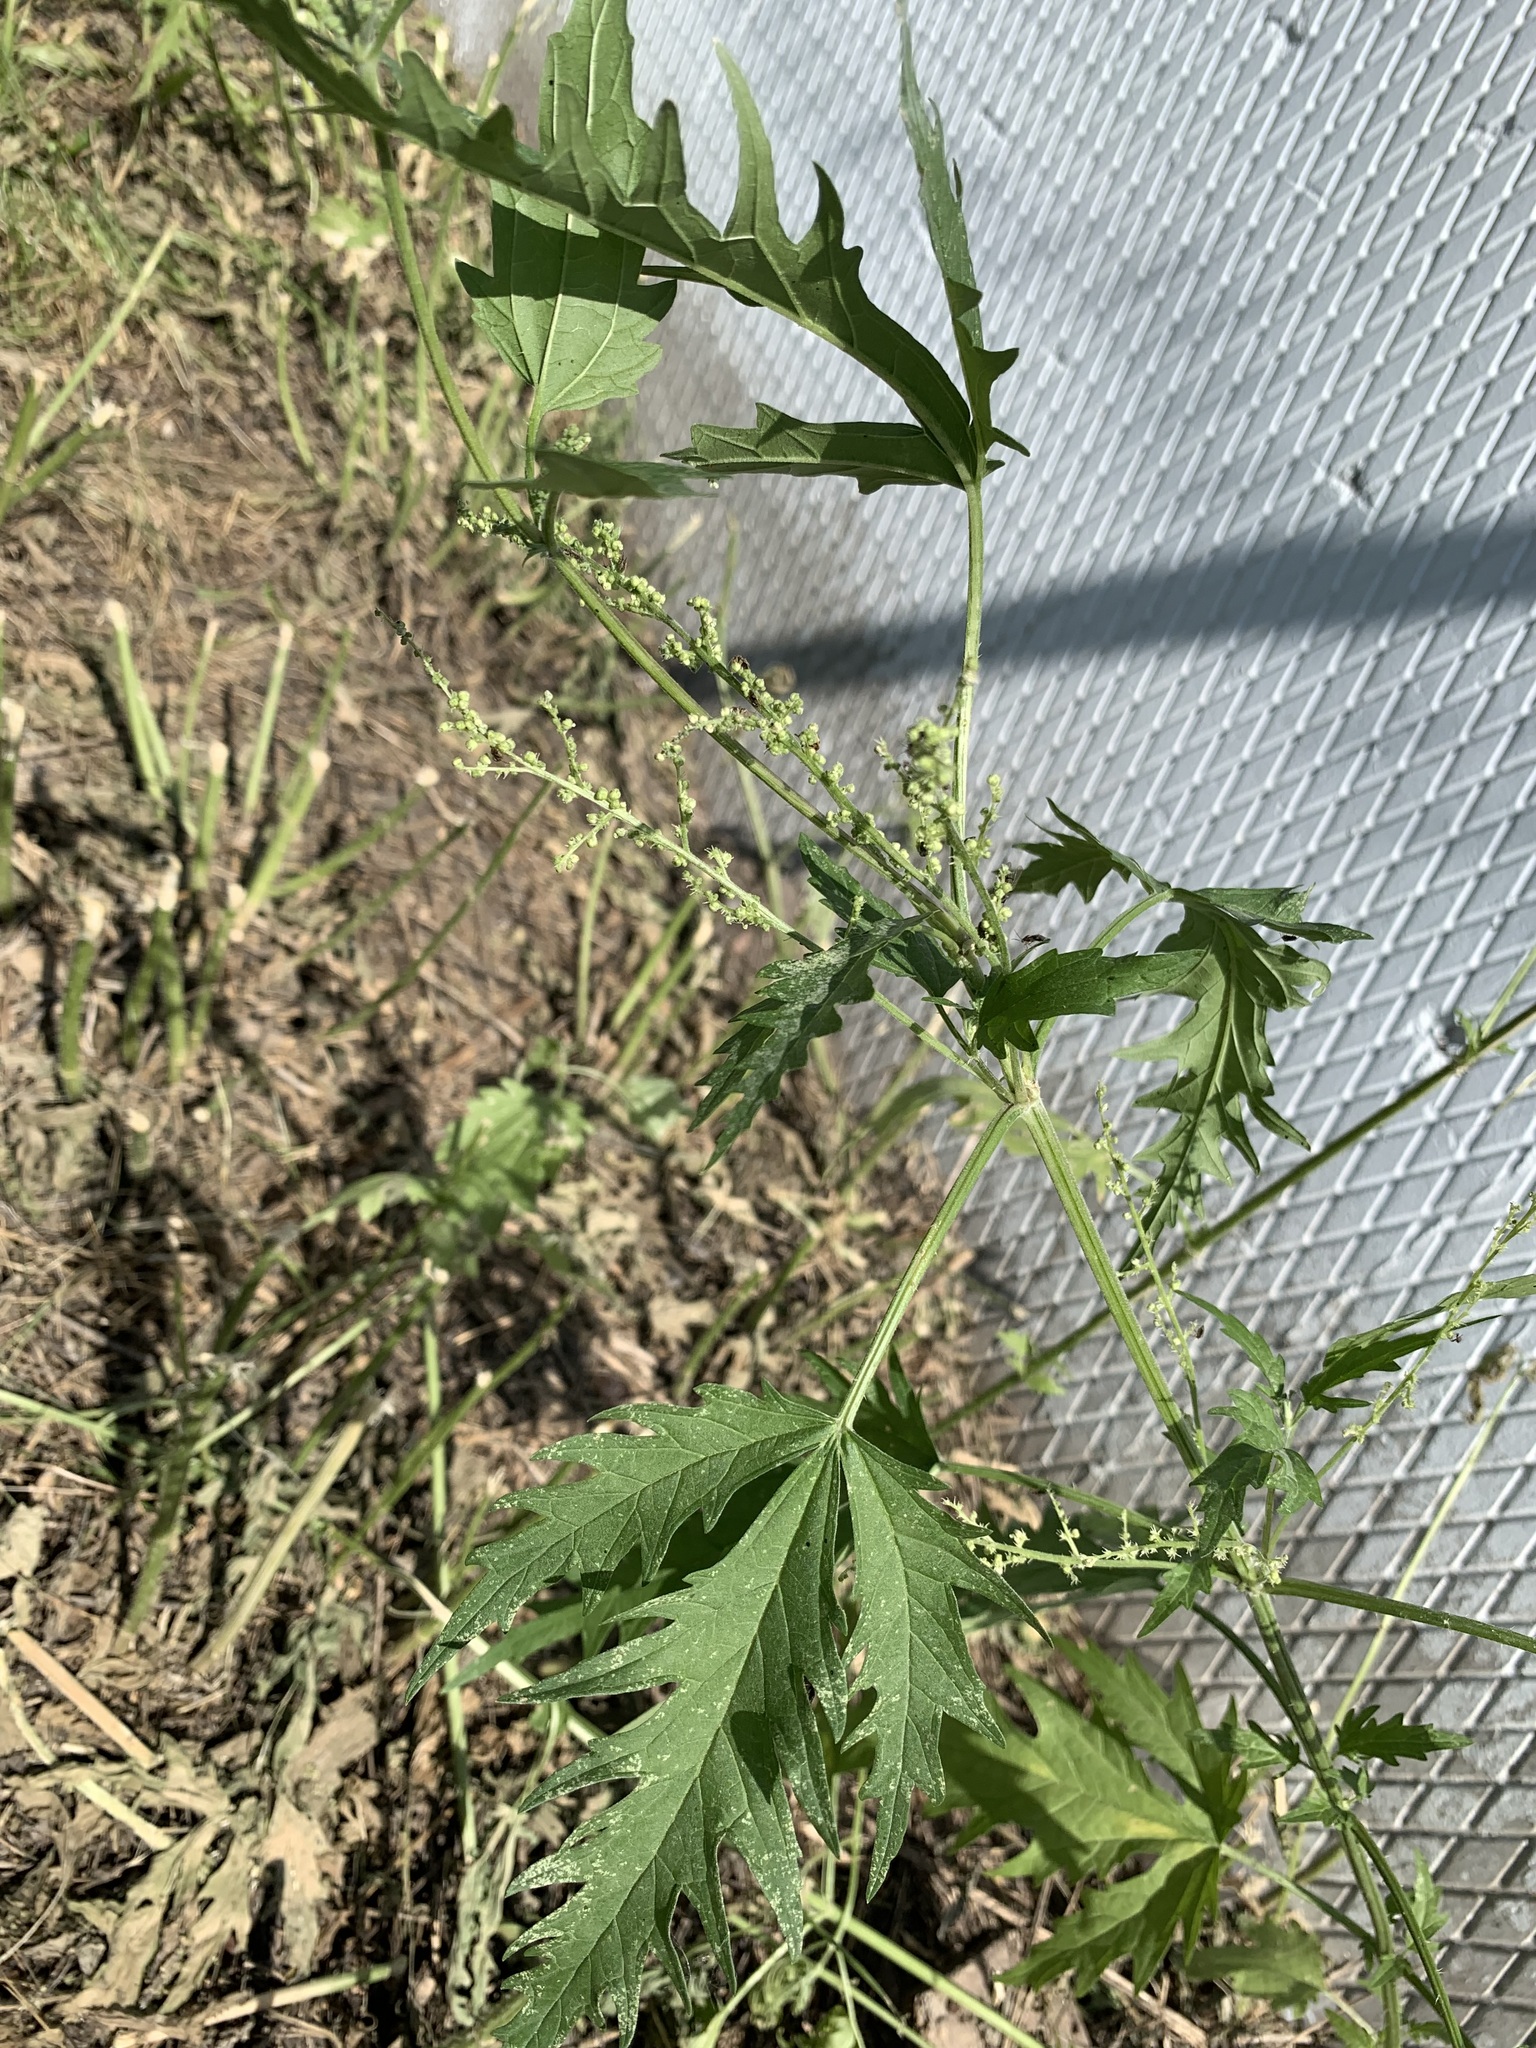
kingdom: Plantae
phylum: Tracheophyta
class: Magnoliopsida
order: Rosales
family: Urticaceae
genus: Urtica
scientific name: Urtica cannabina
